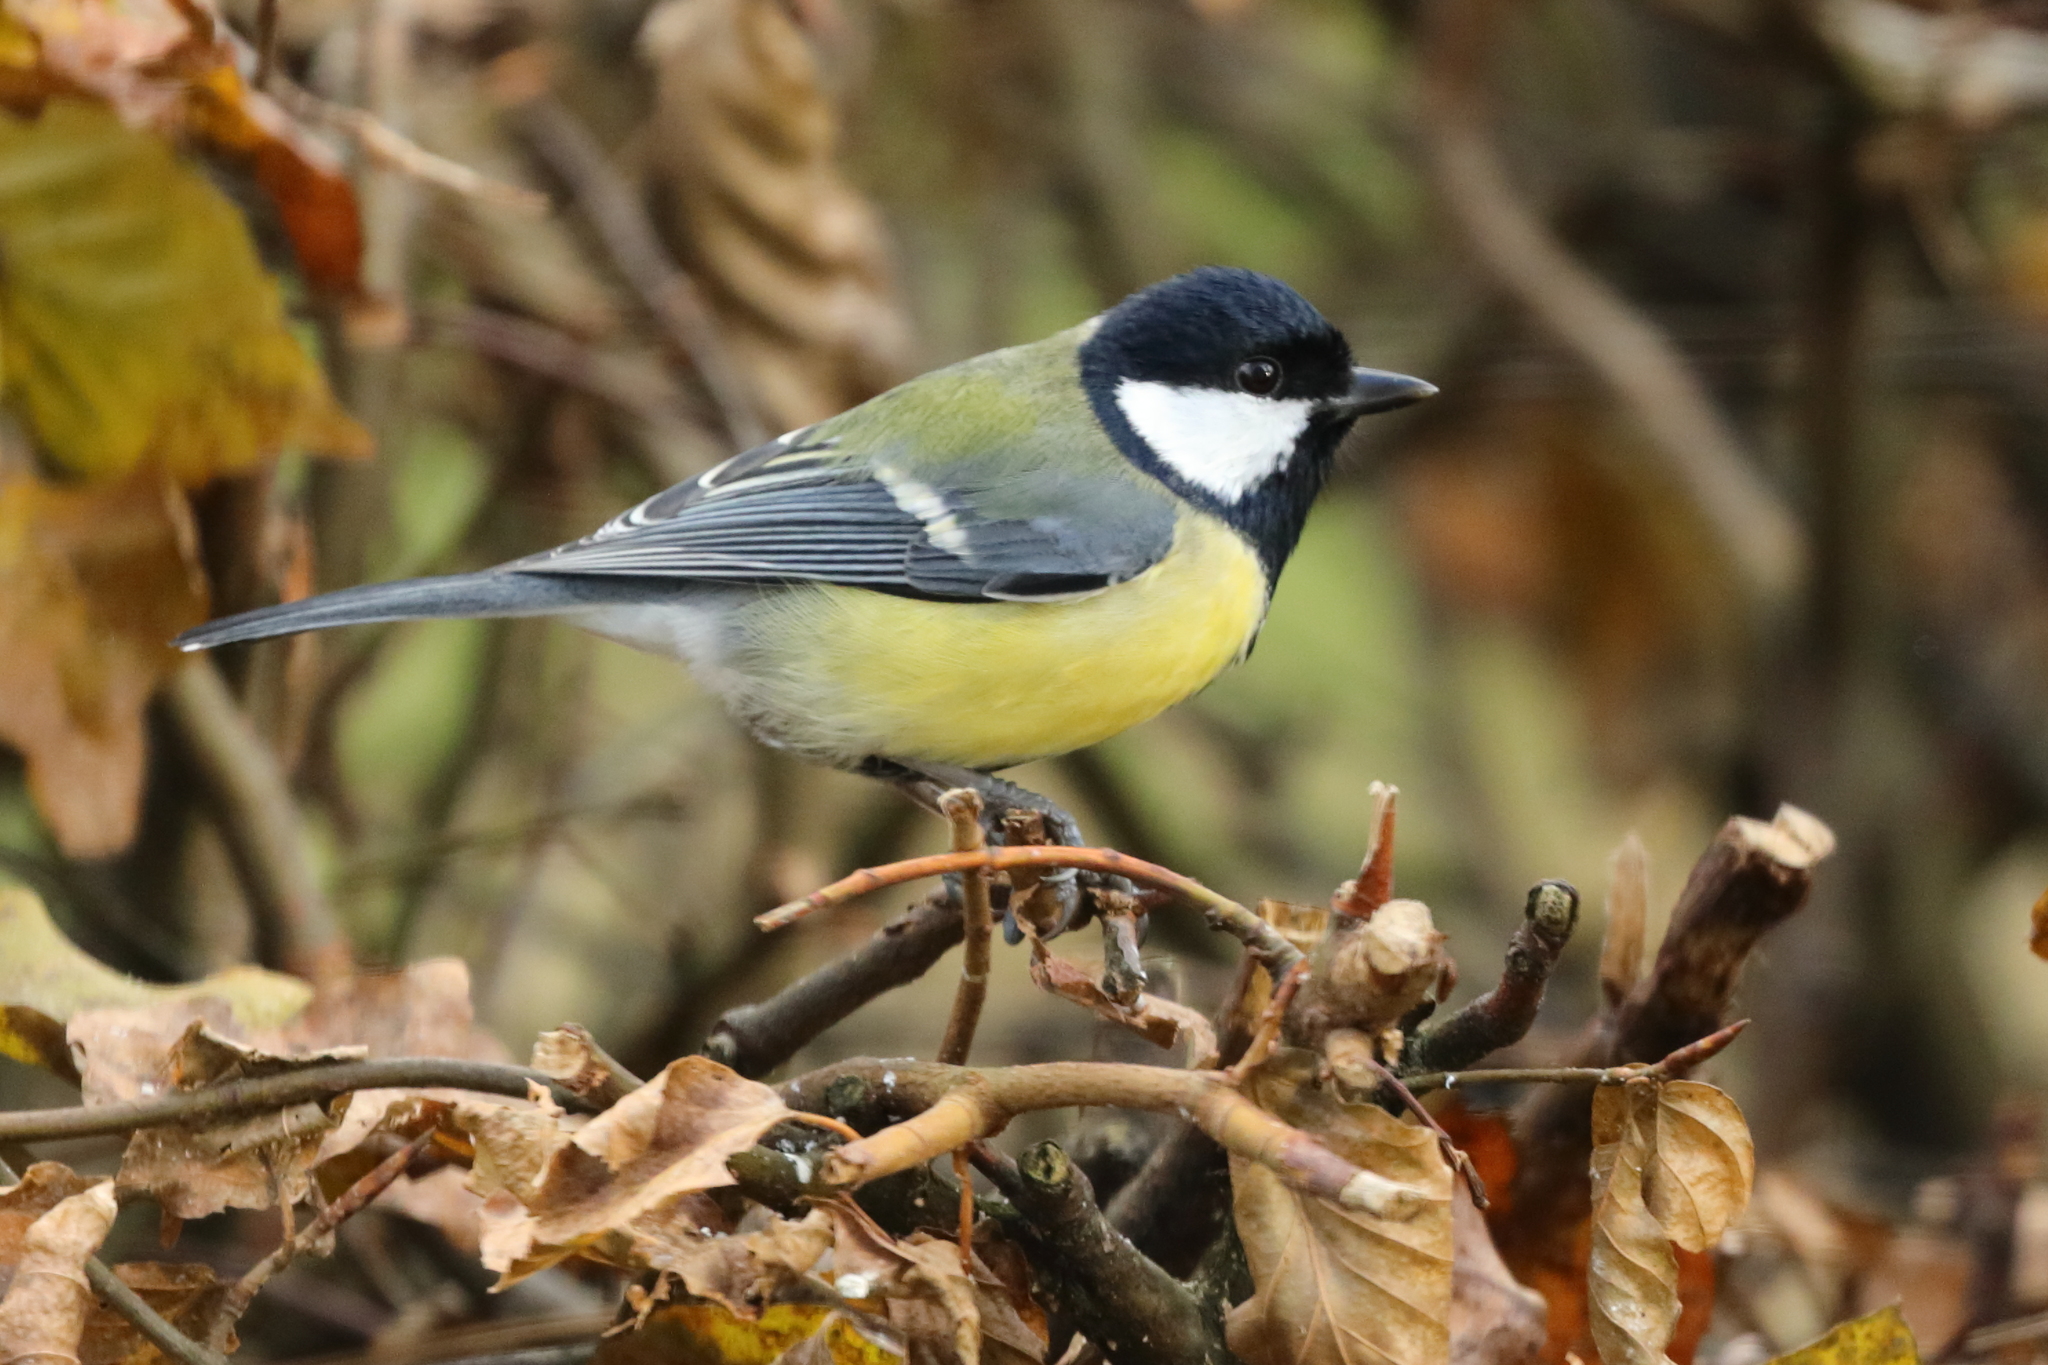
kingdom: Animalia
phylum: Chordata
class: Aves
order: Passeriformes
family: Paridae
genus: Parus
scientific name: Parus major
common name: Great tit
